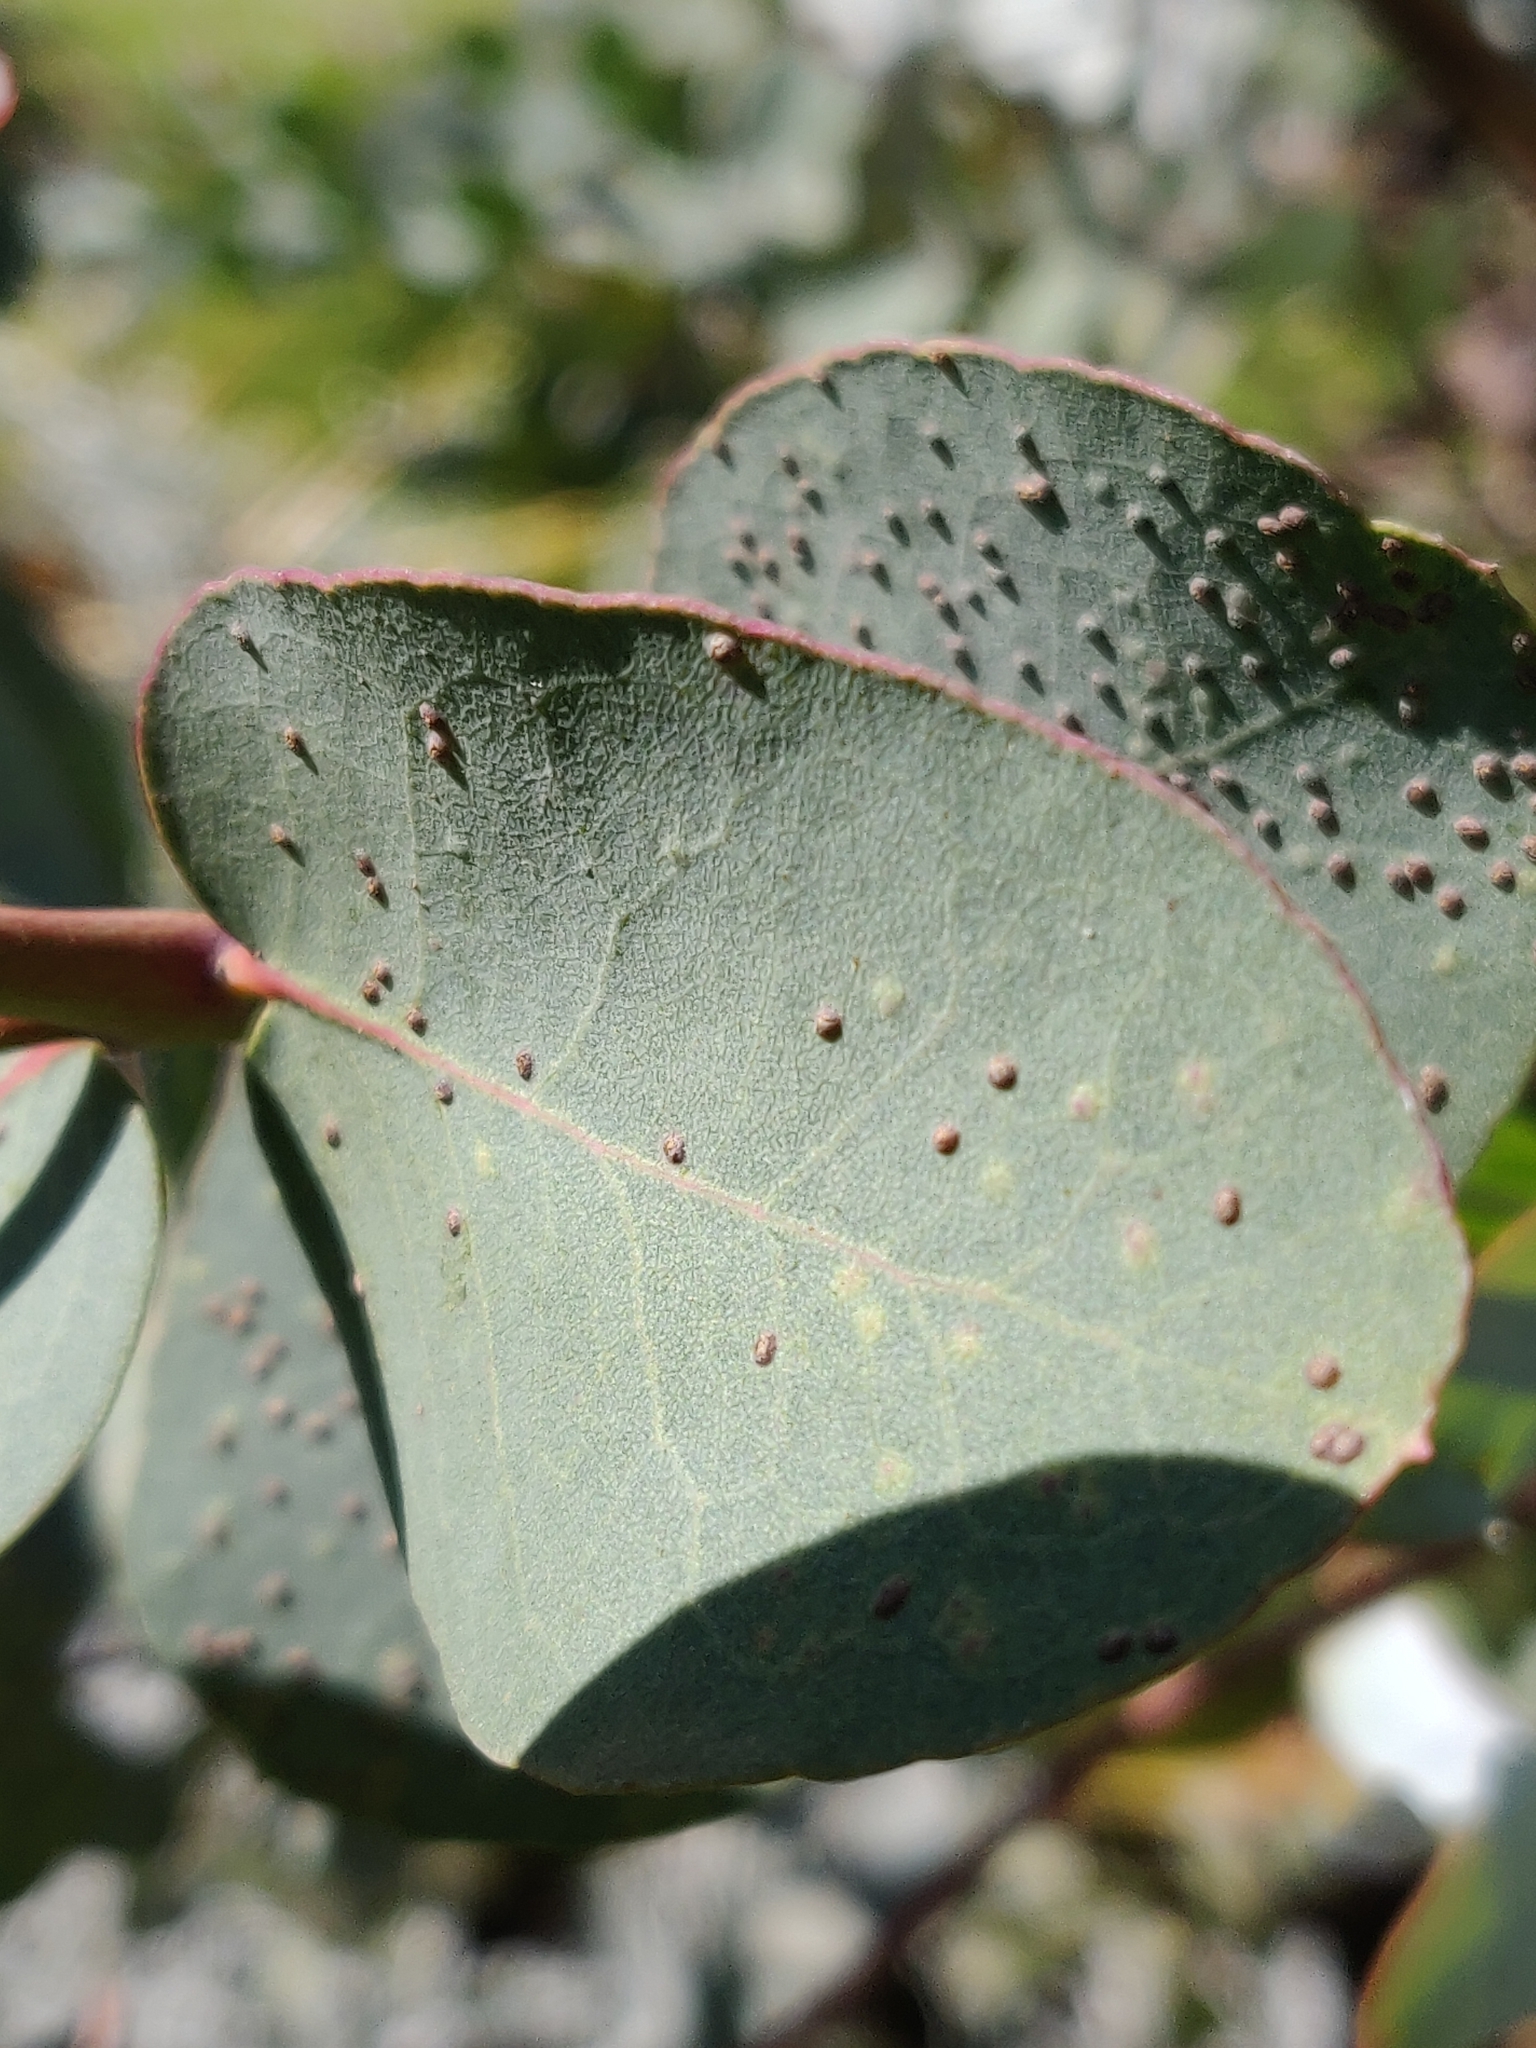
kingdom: Animalia
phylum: Arthropoda
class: Insecta
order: Hymenoptera
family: Eulophidae
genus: Ophelimus
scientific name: Ophelimus maskelli
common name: Gall wasp
